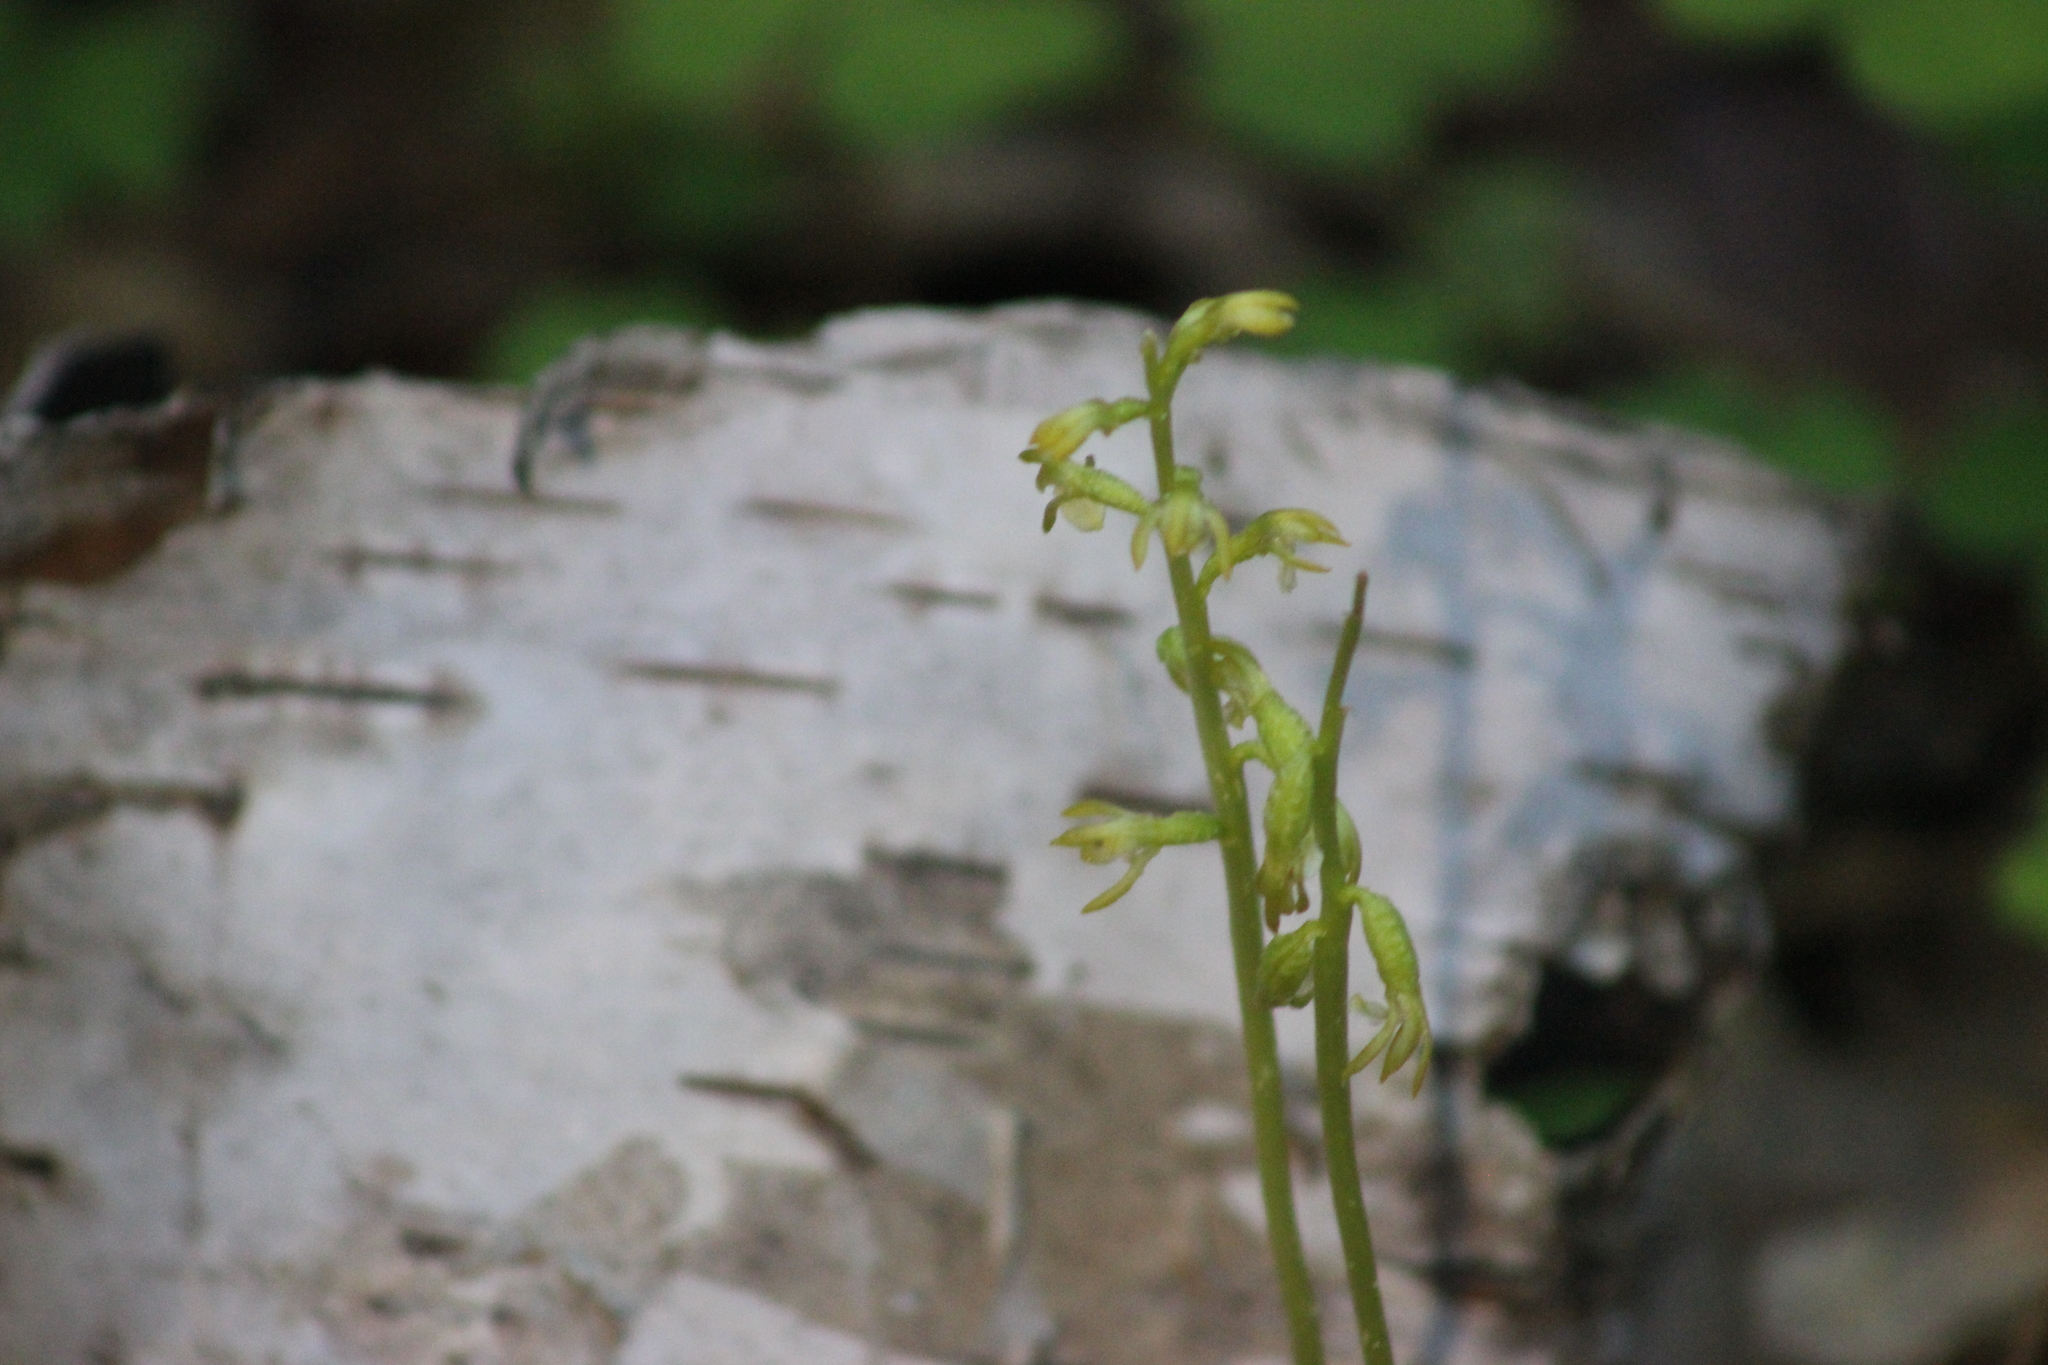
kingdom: Plantae
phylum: Tracheophyta
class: Liliopsida
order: Asparagales
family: Orchidaceae
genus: Corallorhiza
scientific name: Corallorhiza trifida
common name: Yellow coralroot
